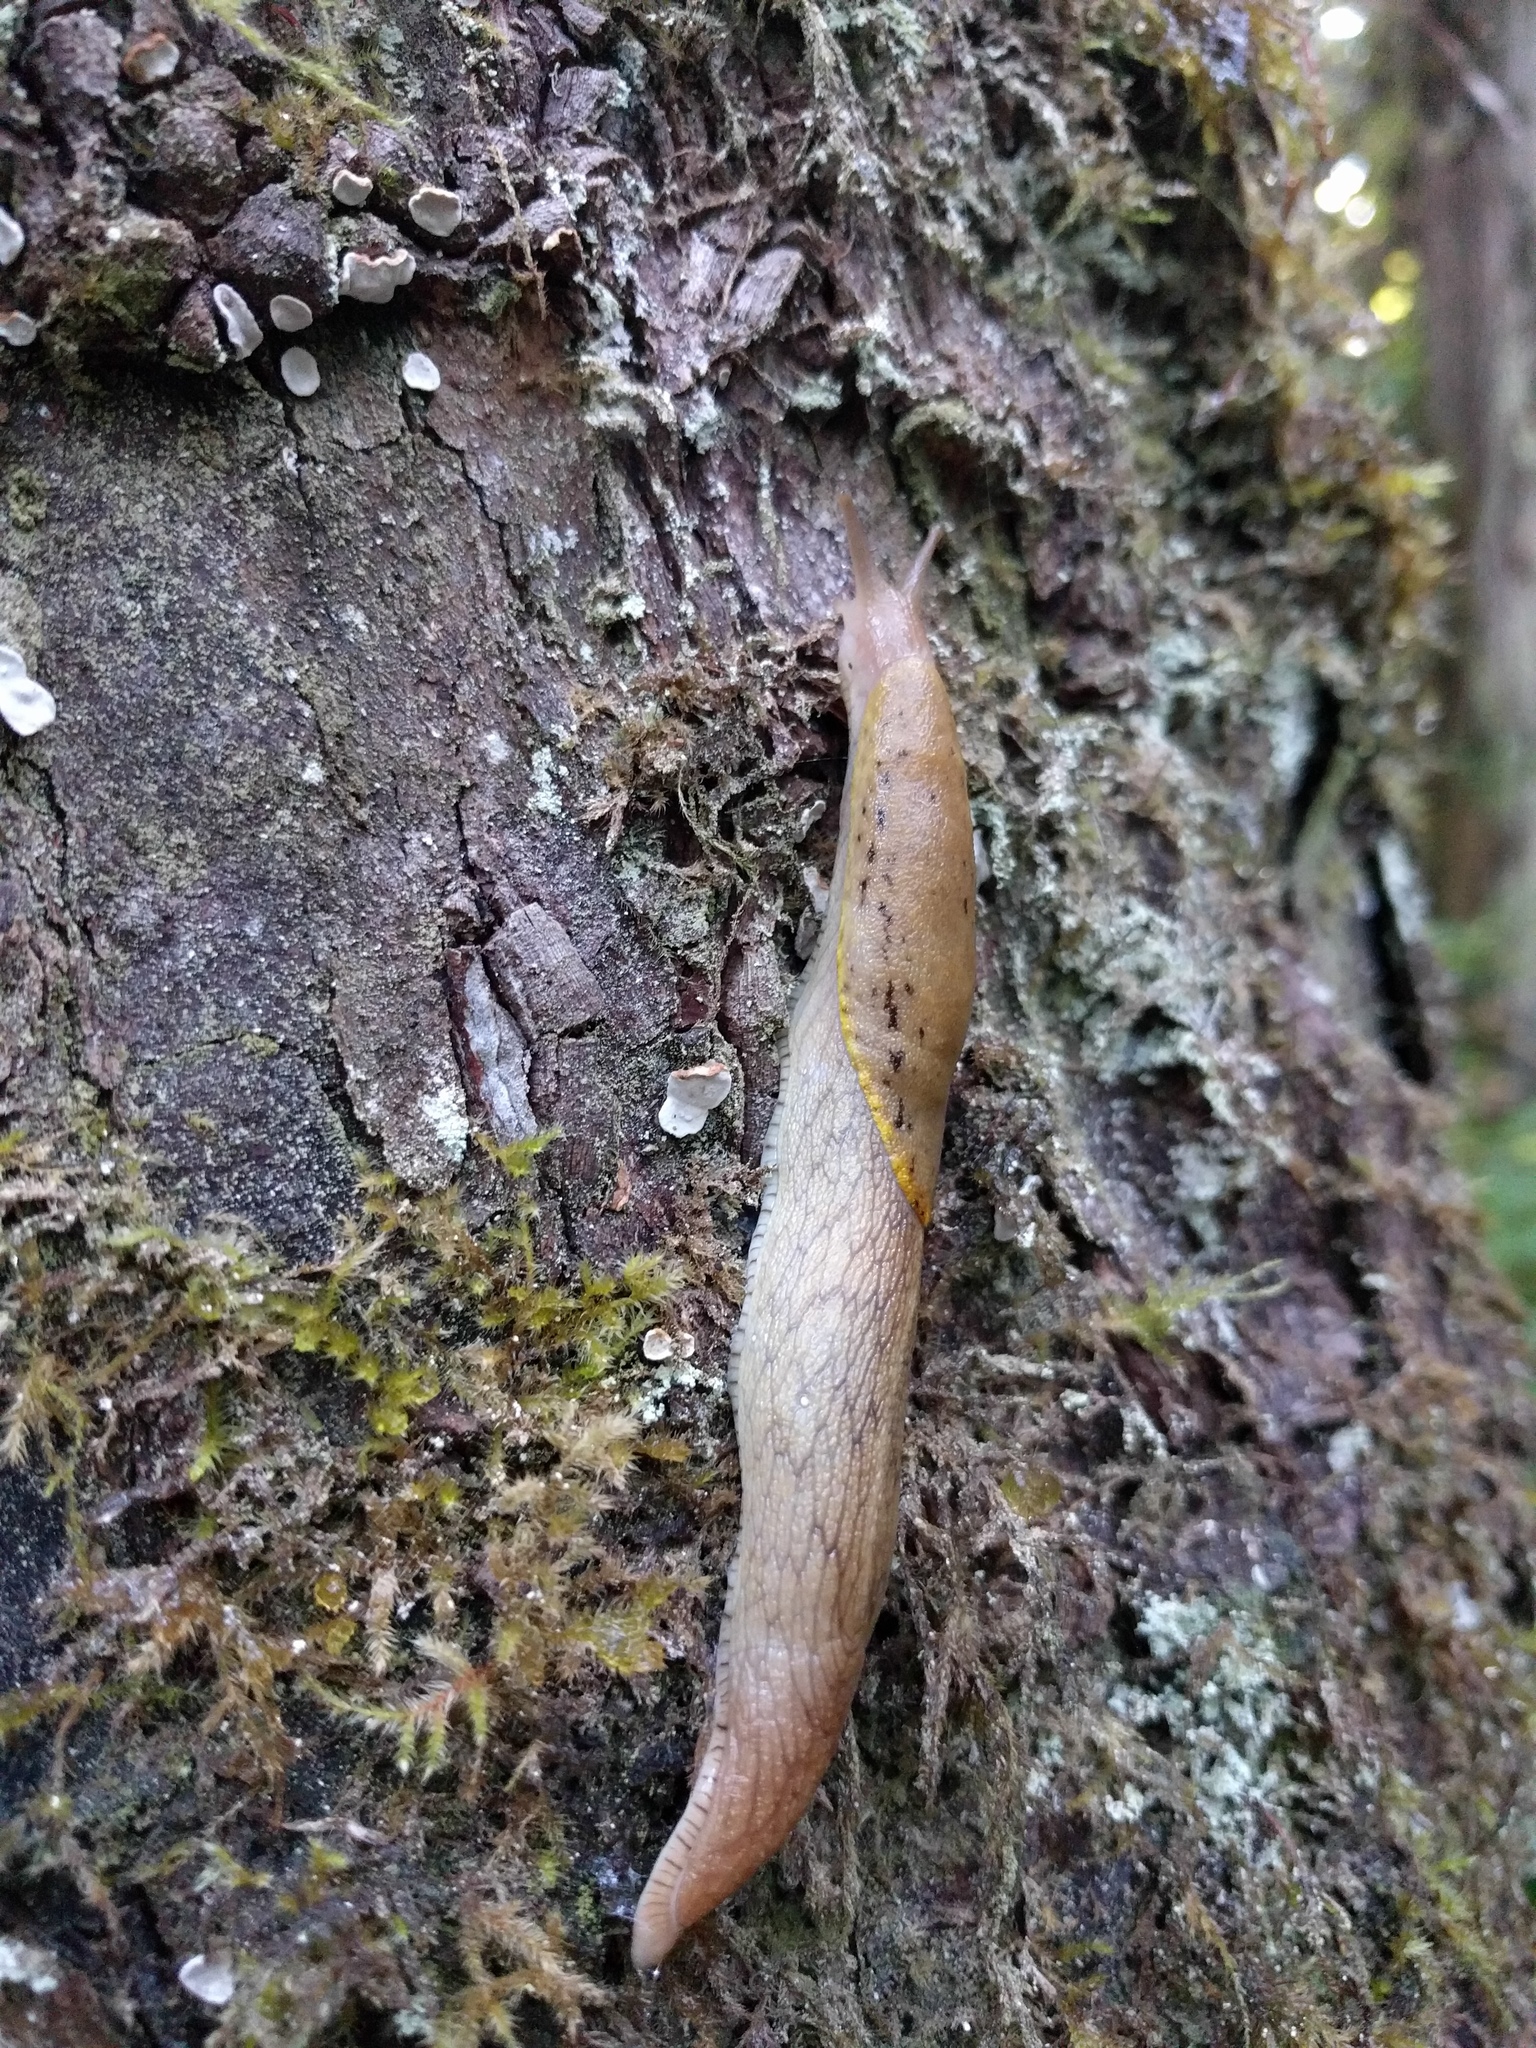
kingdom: Animalia
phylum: Mollusca
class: Gastropoda
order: Stylommatophora
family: Ariolimacidae
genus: Prophysaon
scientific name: Prophysaon foliolatum
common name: Yellow-bordered taildropper
